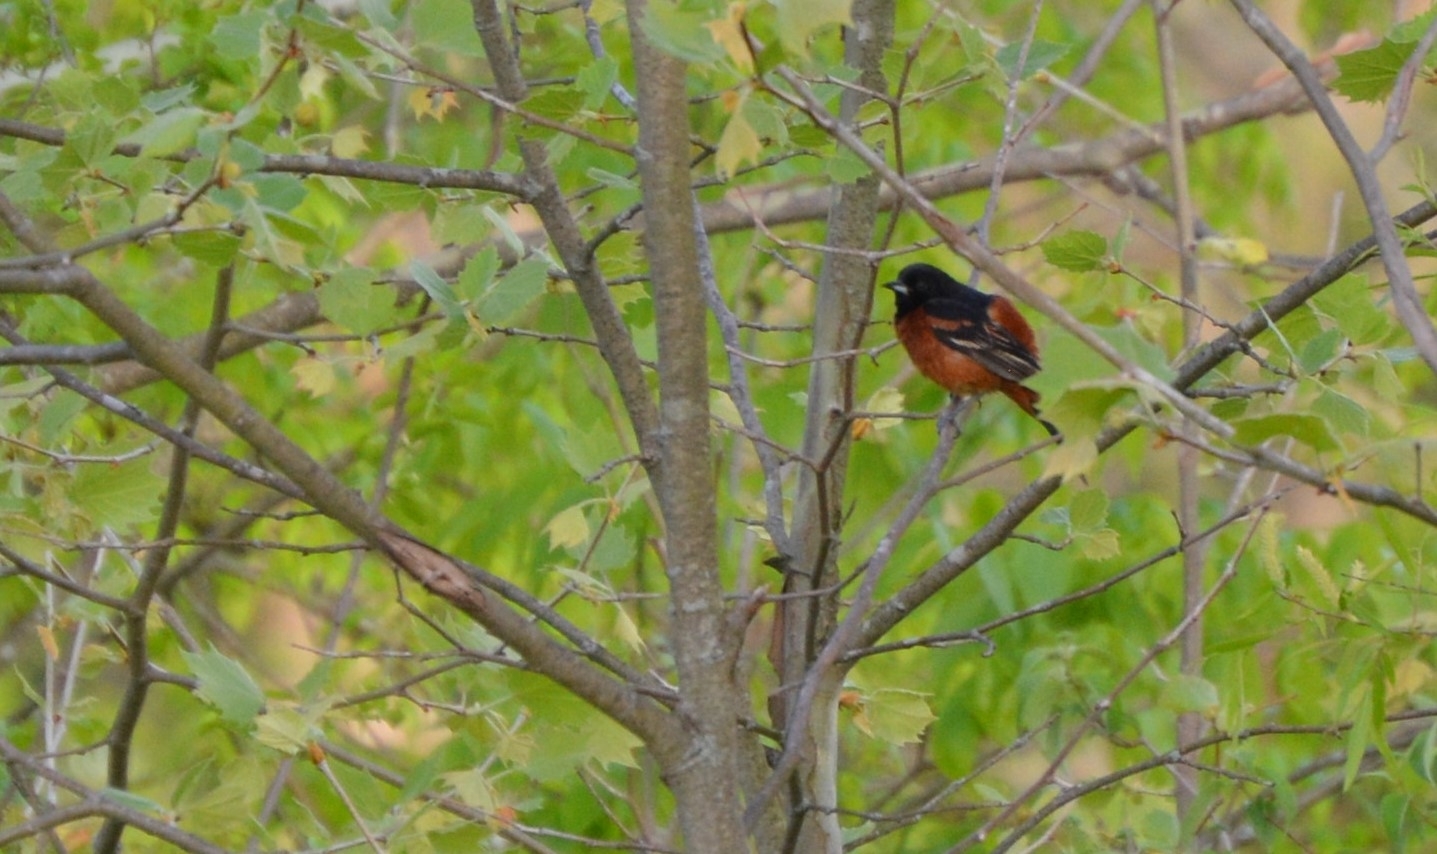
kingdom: Animalia
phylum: Chordata
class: Aves
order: Passeriformes
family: Icteridae
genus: Icterus
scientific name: Icterus spurius
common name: Orchard oriole
